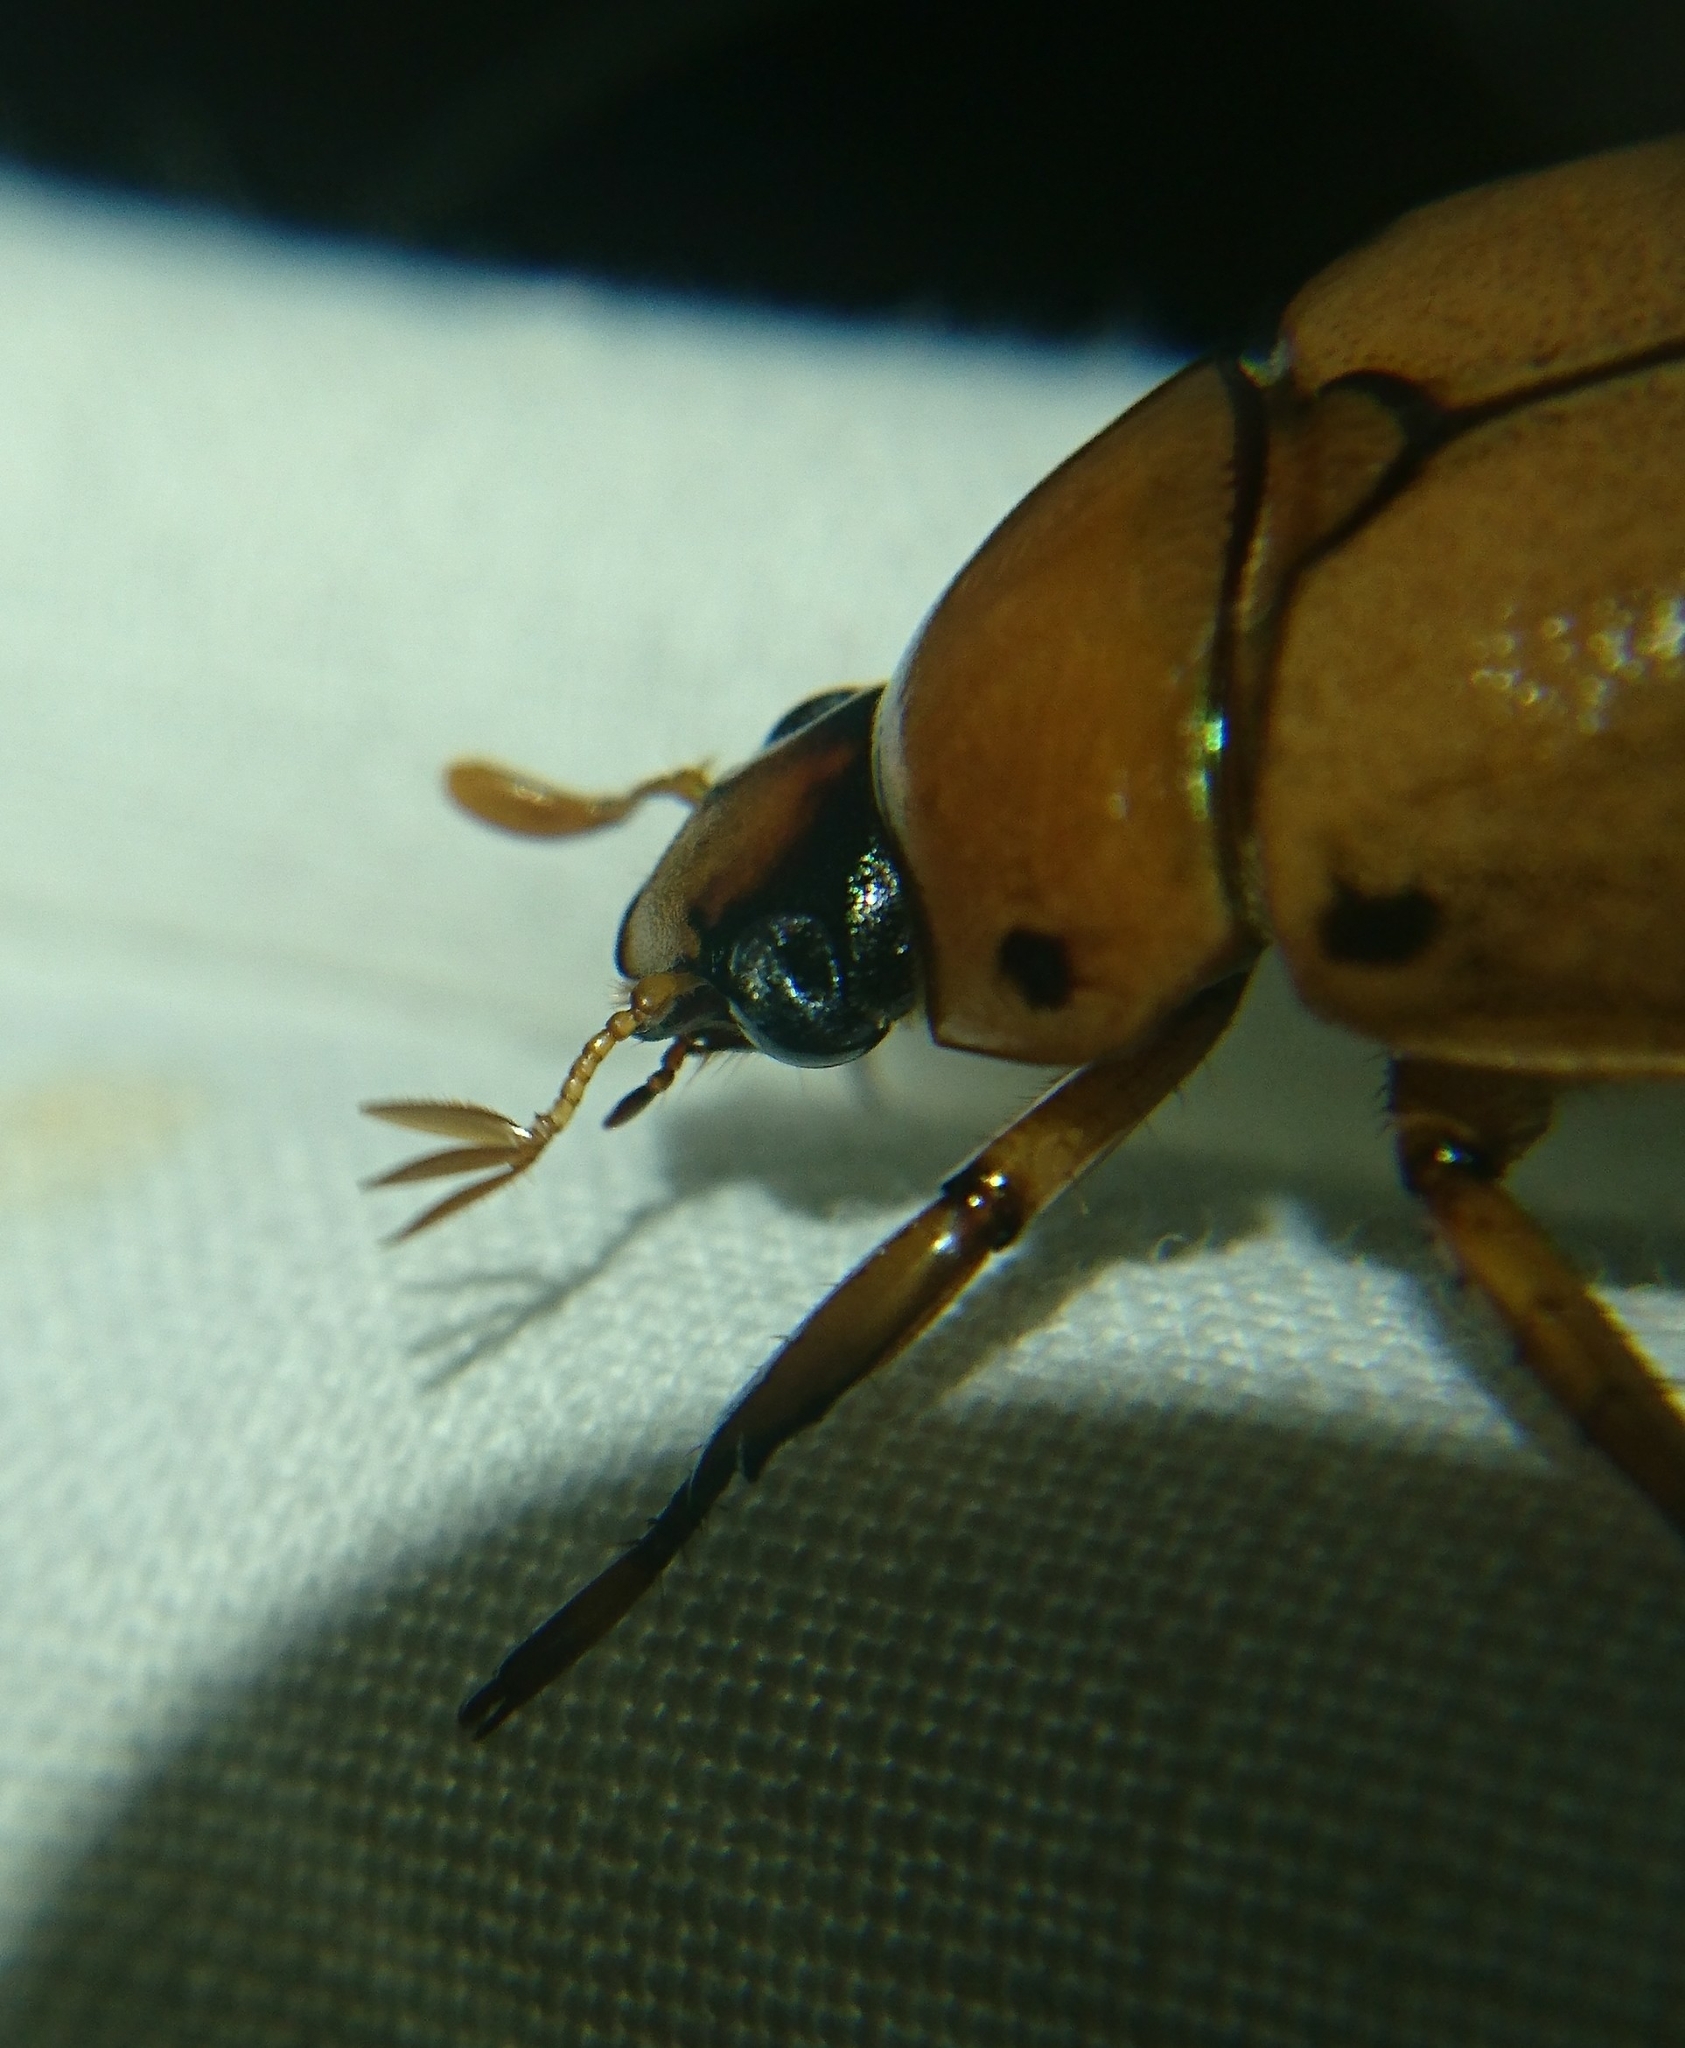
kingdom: Animalia
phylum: Arthropoda
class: Insecta
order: Coleoptera
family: Scarabaeidae
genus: Pelidnota
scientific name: Pelidnota punctata
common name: Grapevine beetle
